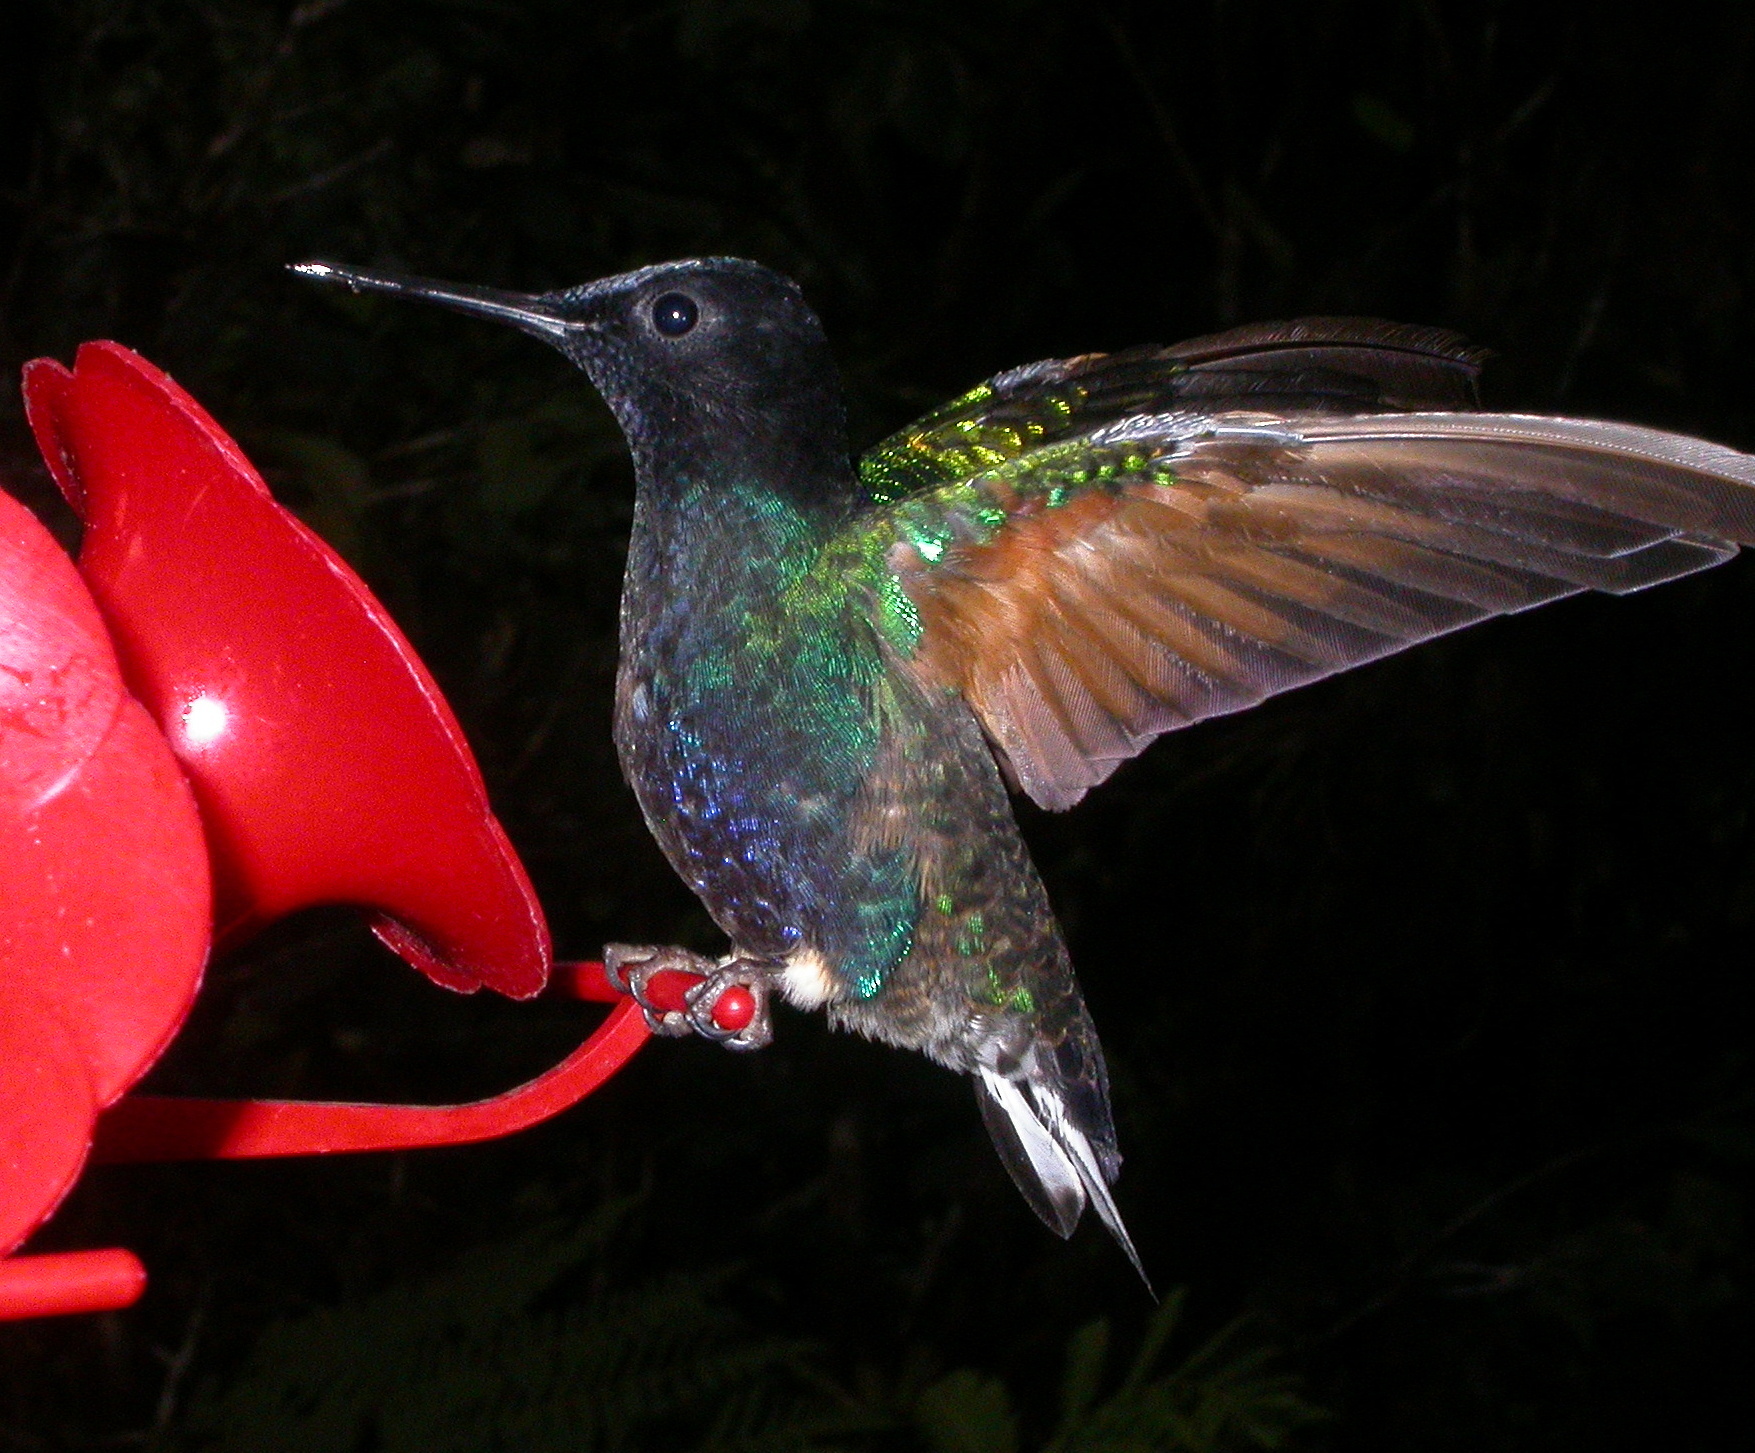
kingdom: Animalia
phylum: Chordata
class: Aves
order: Apodiformes
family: Trochilidae
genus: Boissonneaua
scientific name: Boissonneaua jardini
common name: Velvet-purple coronet
